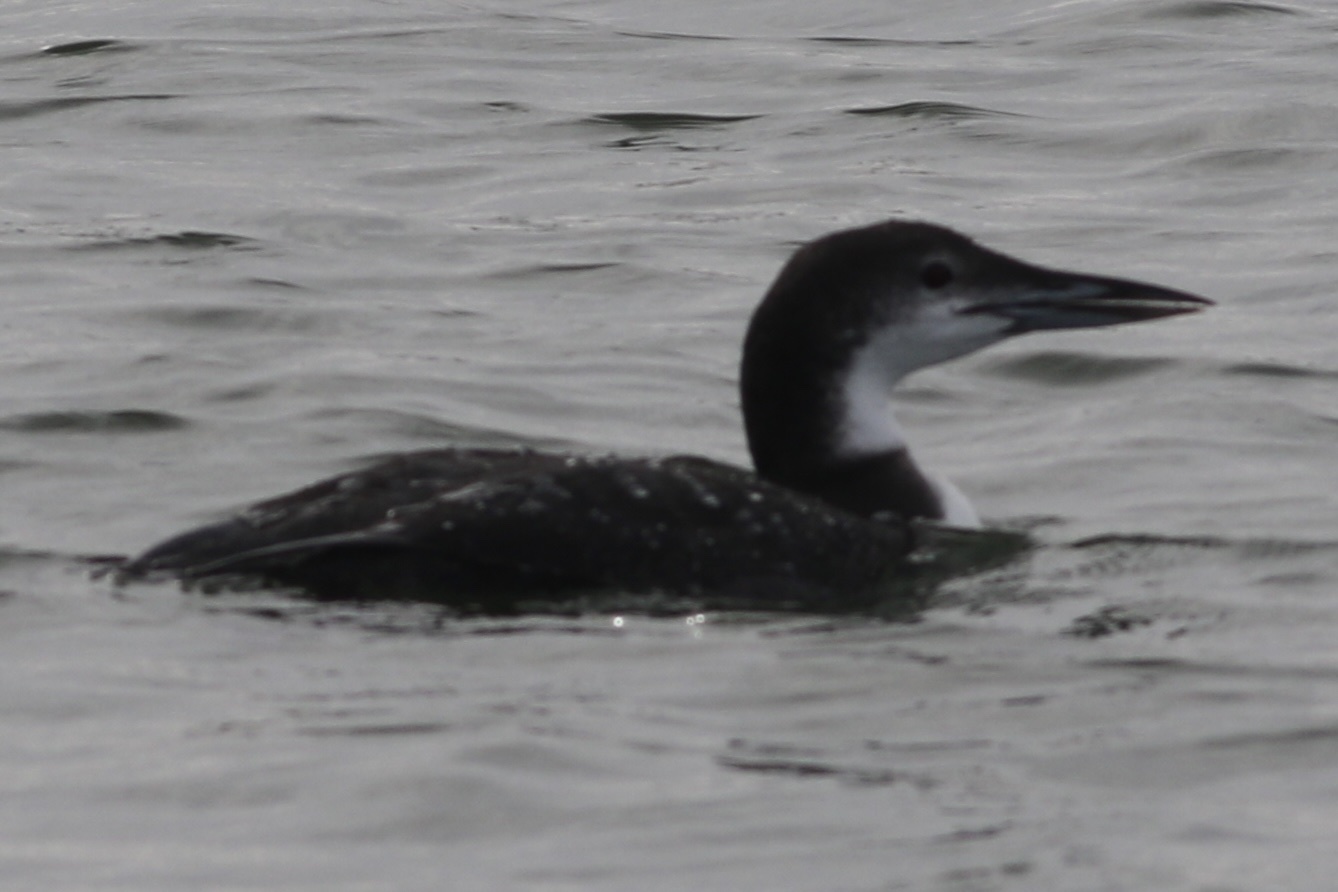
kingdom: Animalia
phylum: Chordata
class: Aves
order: Gaviiformes
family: Gaviidae
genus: Gavia
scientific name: Gavia immer
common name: Common loon
